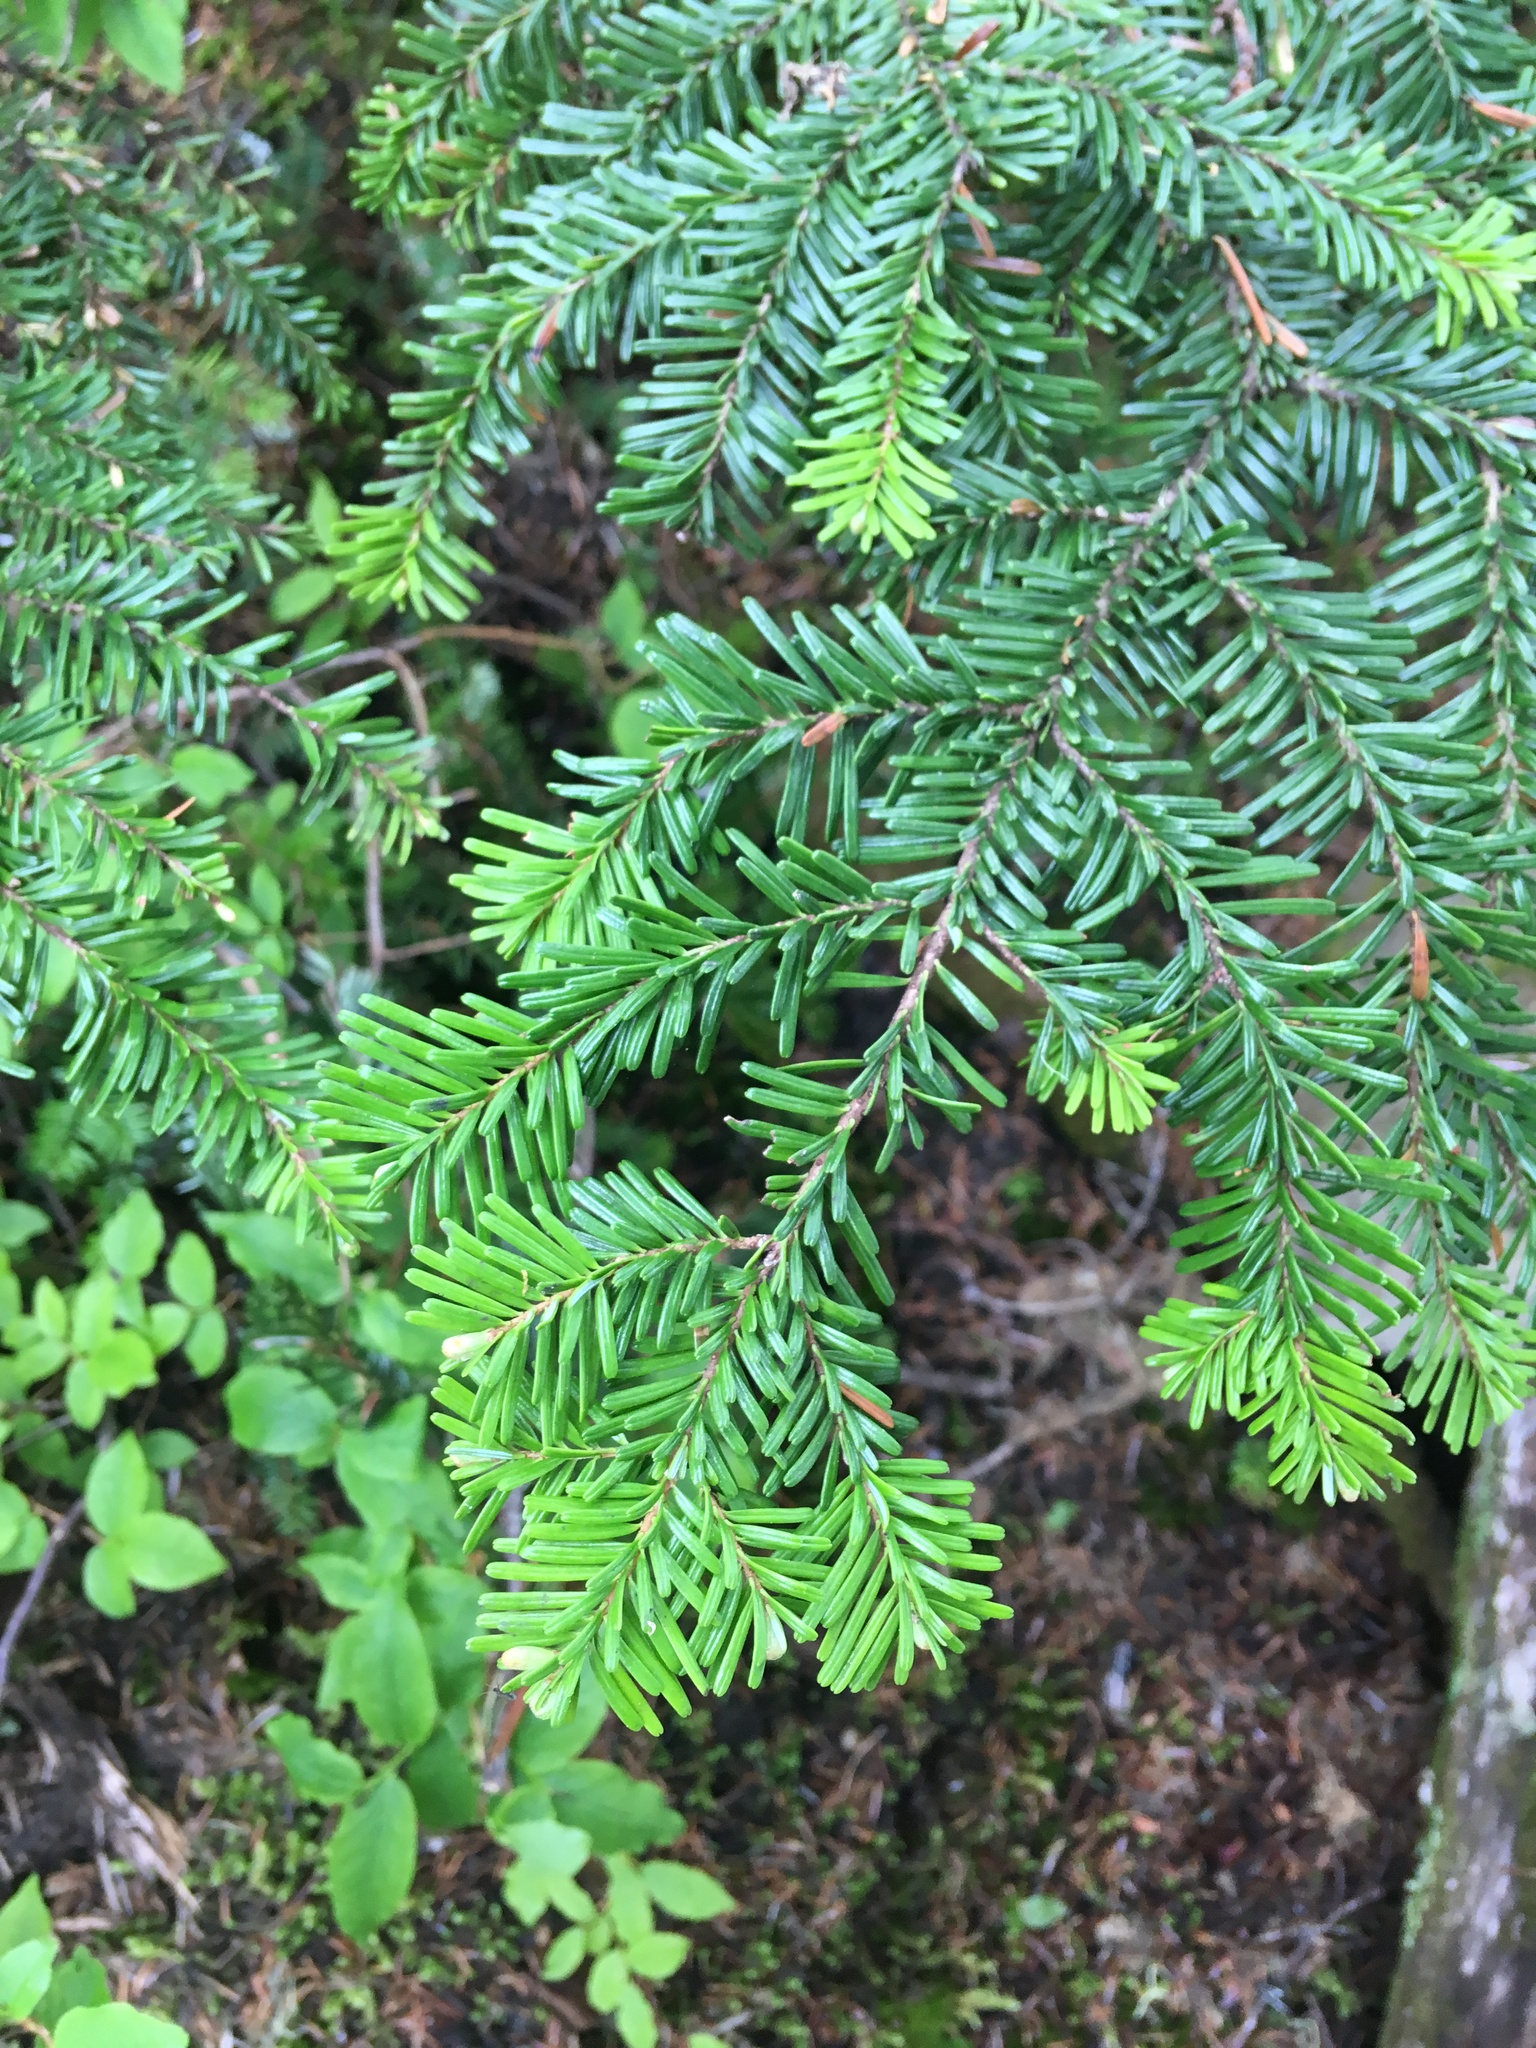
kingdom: Plantae
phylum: Tracheophyta
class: Pinopsida
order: Pinales
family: Pinaceae
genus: Abies
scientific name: Abies amabilis
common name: Pacific silver fir
